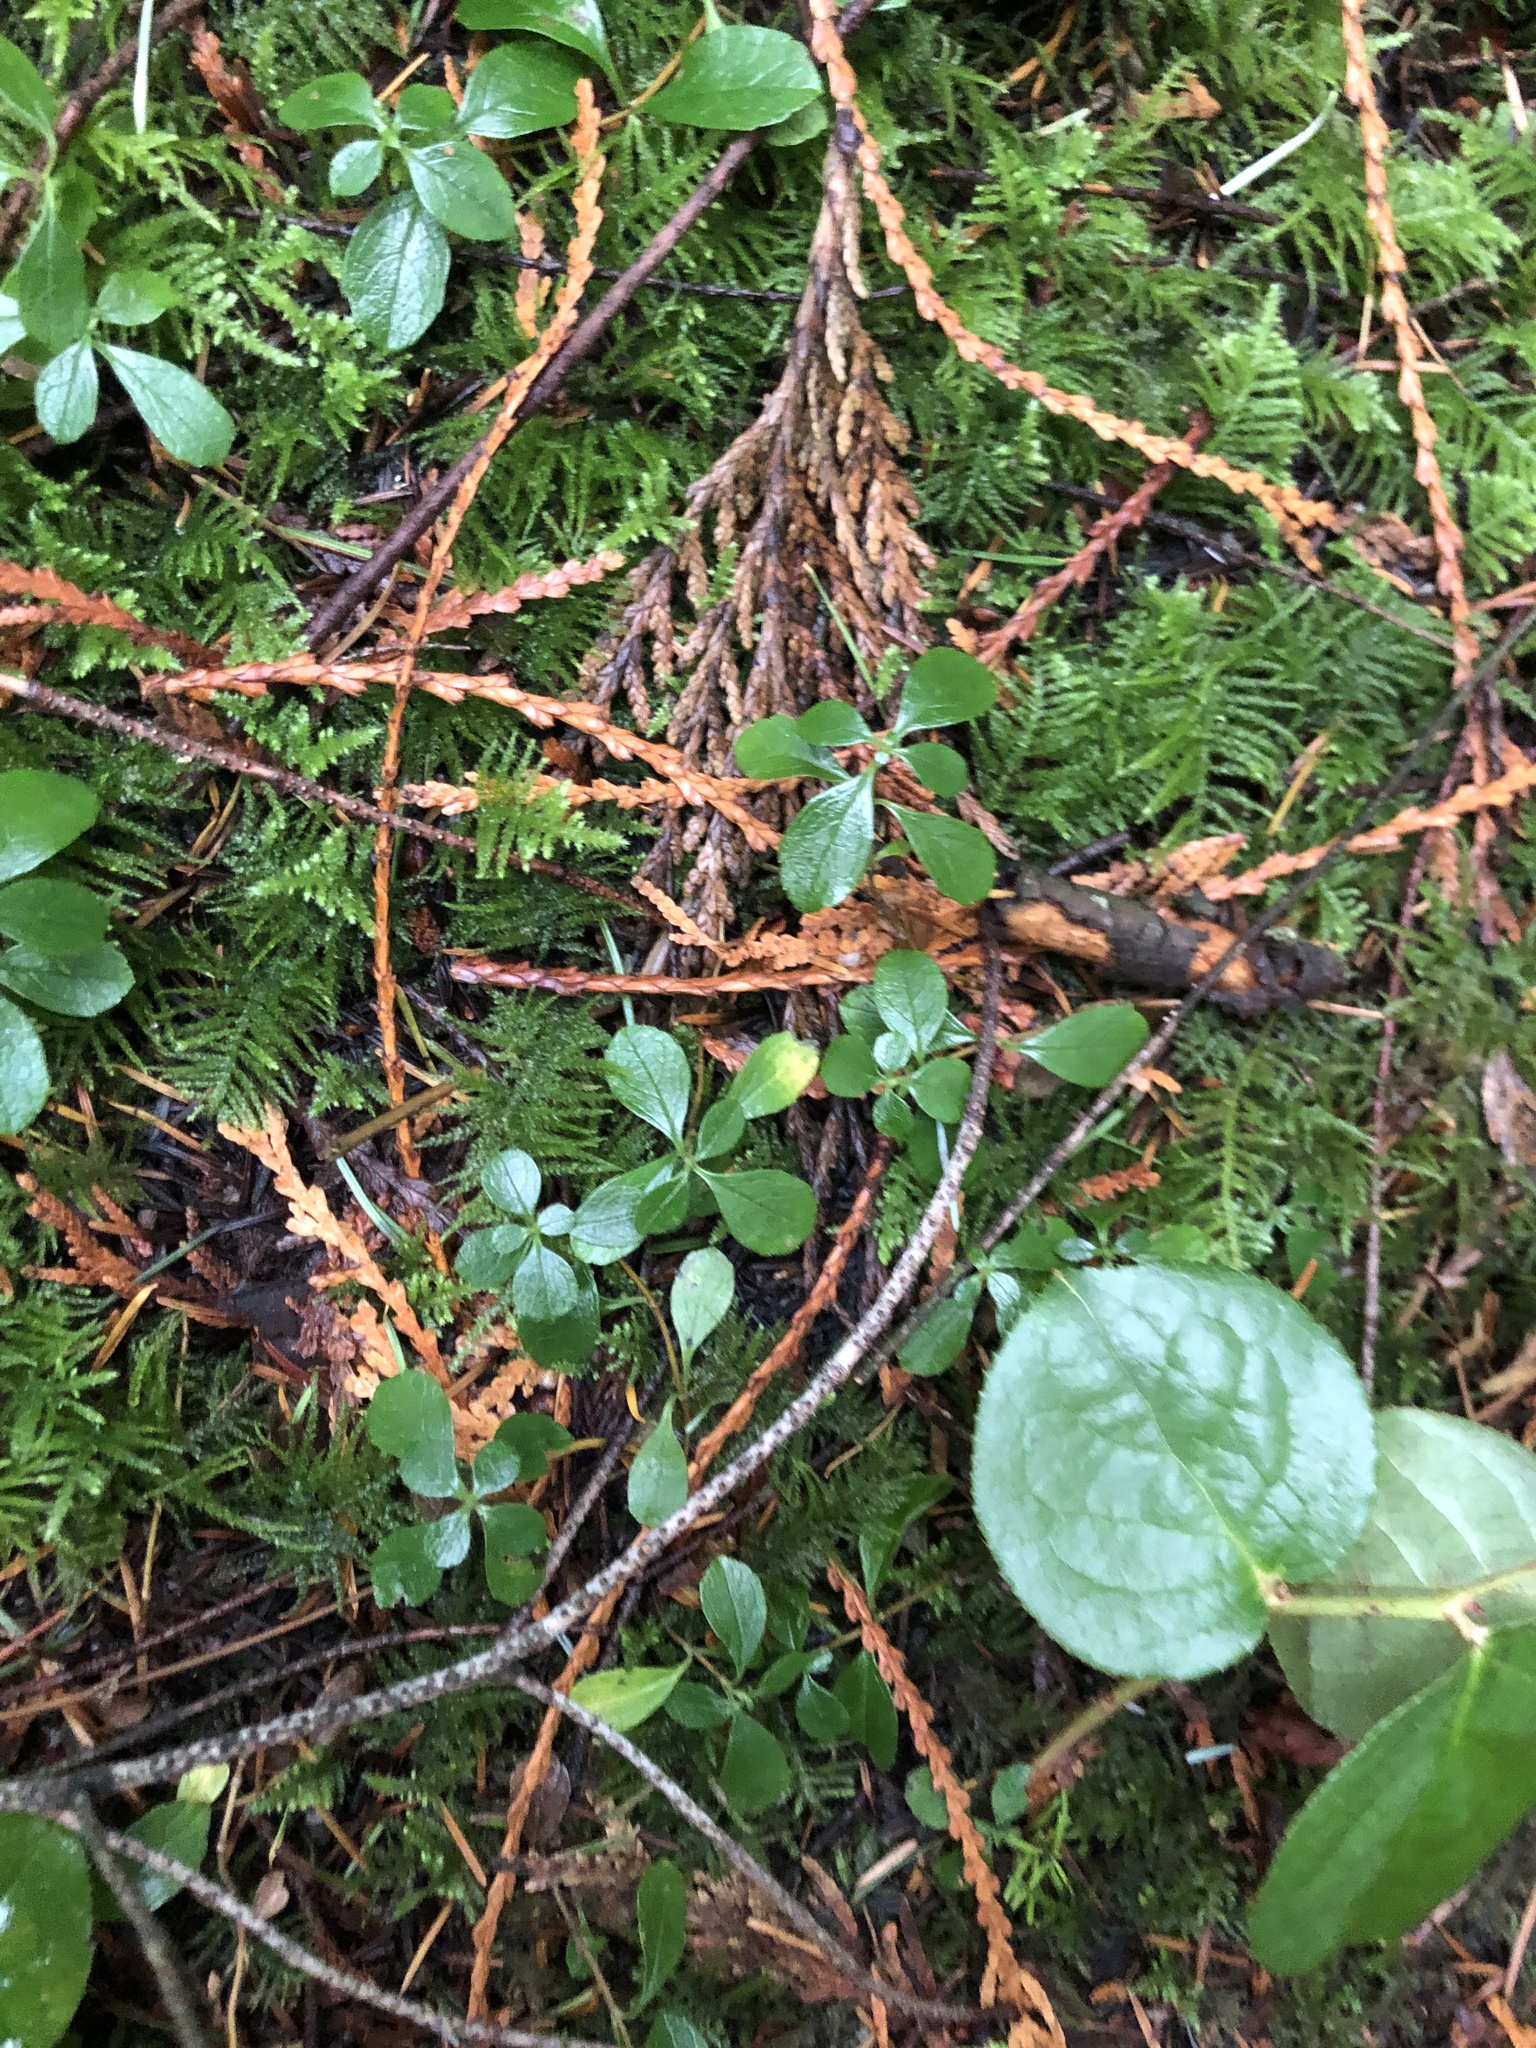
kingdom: Plantae
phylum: Tracheophyta
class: Magnoliopsida
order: Dipsacales
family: Caprifoliaceae
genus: Linnaea
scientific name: Linnaea borealis
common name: Twinflower
